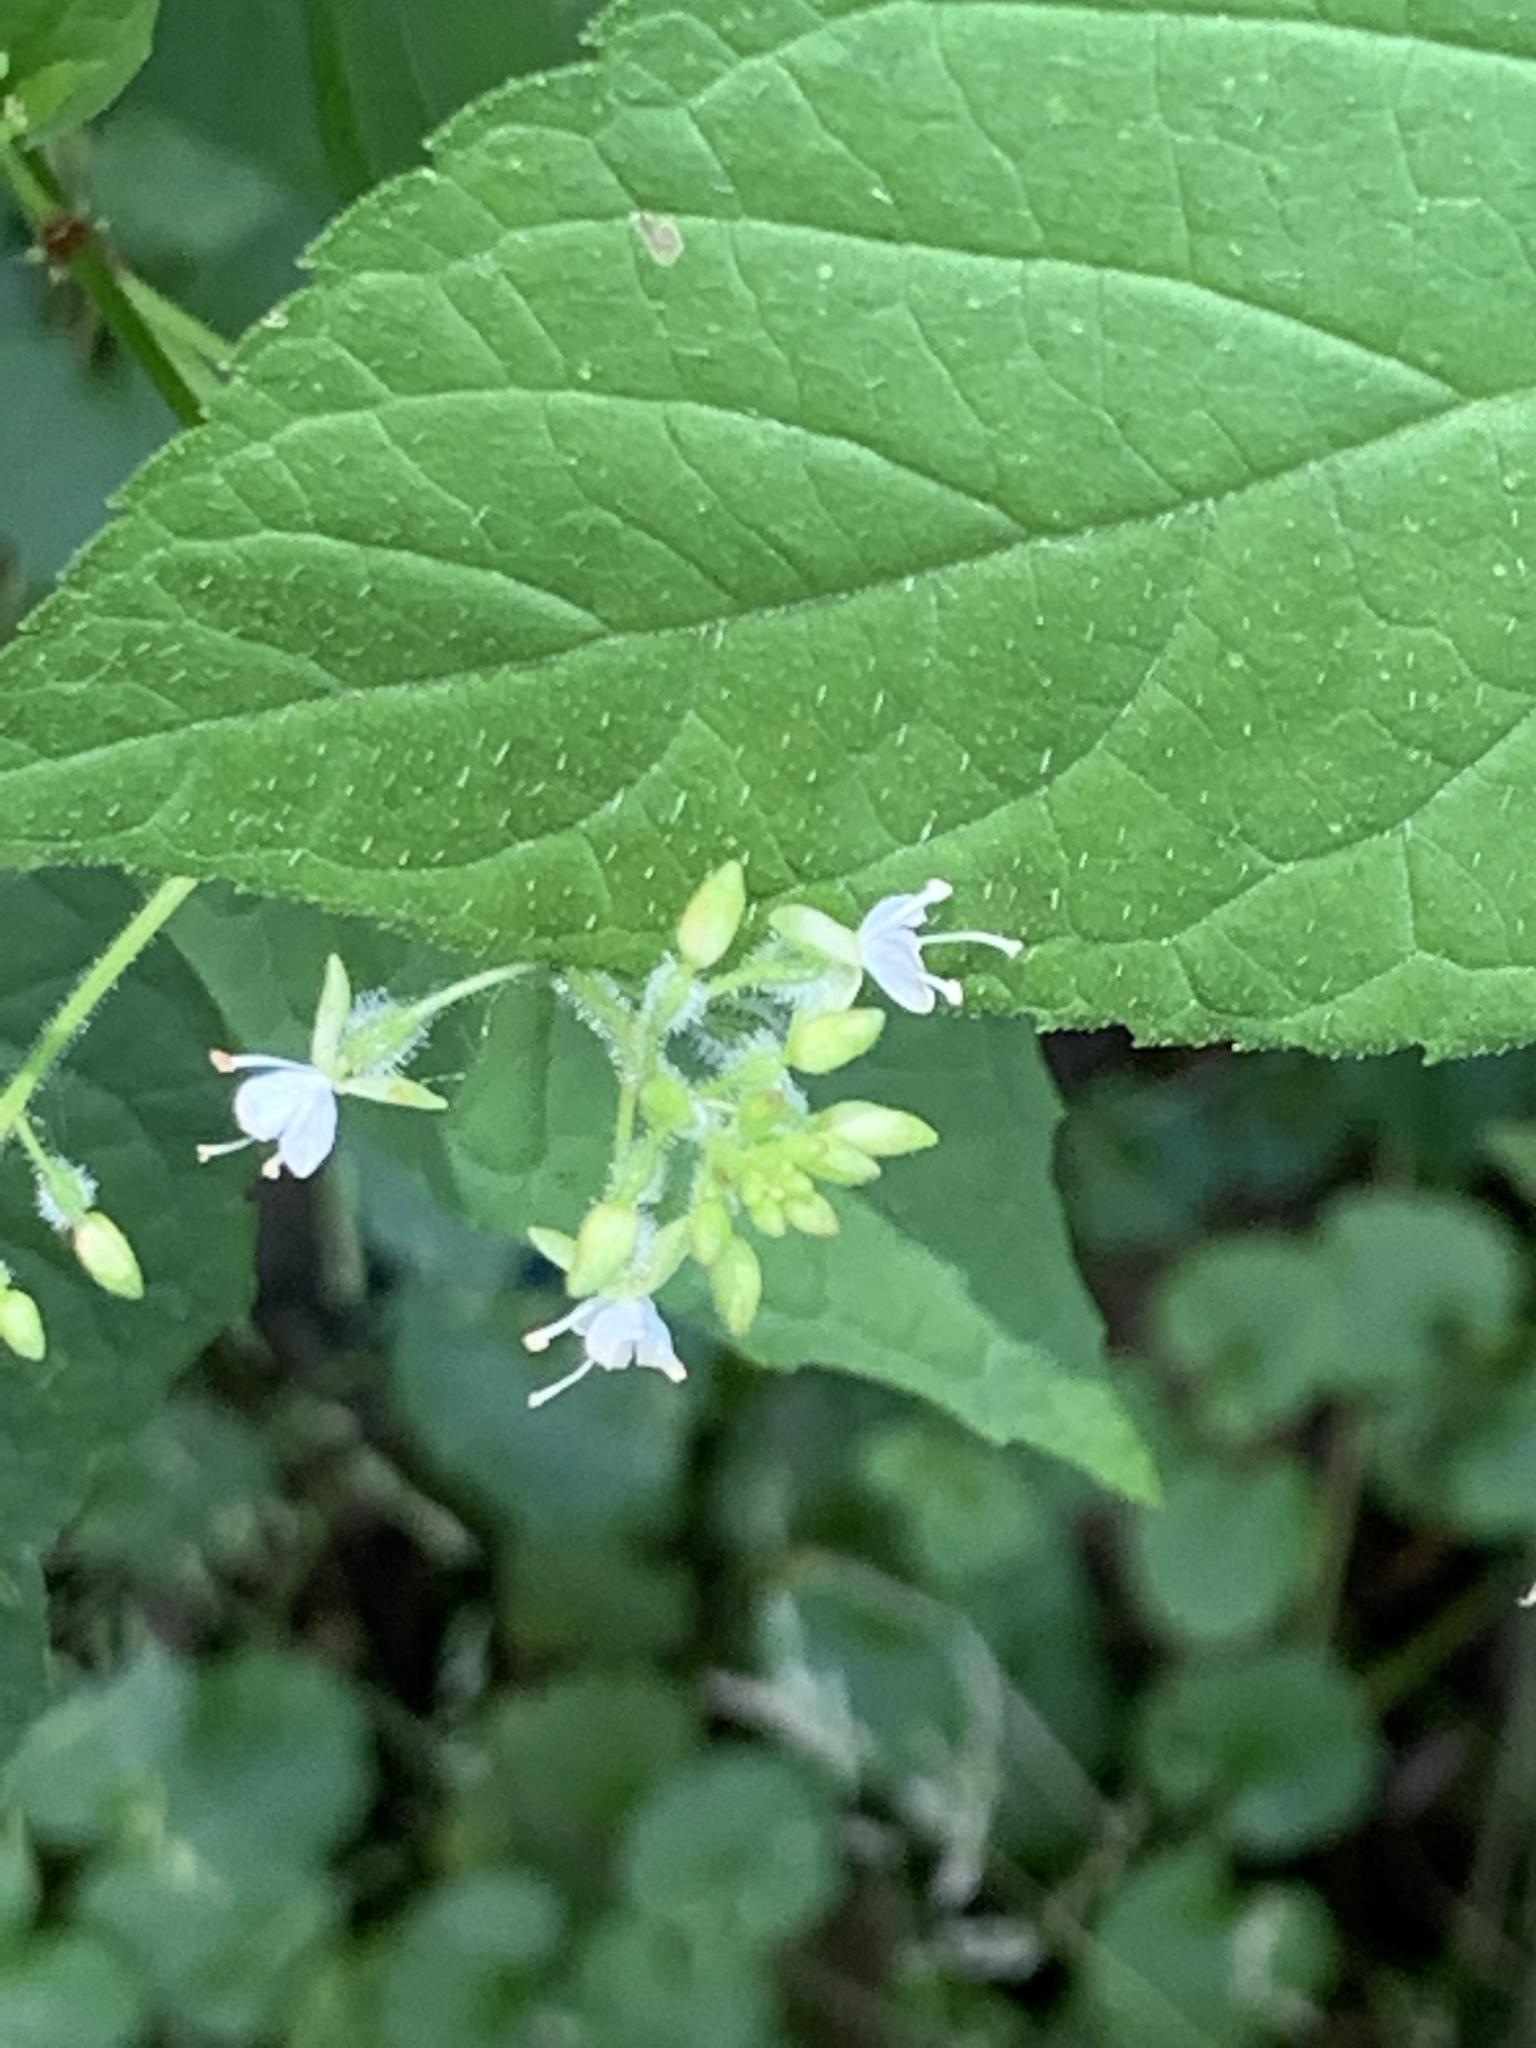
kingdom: Plantae
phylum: Tracheophyta
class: Magnoliopsida
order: Myrtales
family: Onagraceae
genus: Circaea
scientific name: Circaea canadensis
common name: Broad-leaved enchanter's nightshade
